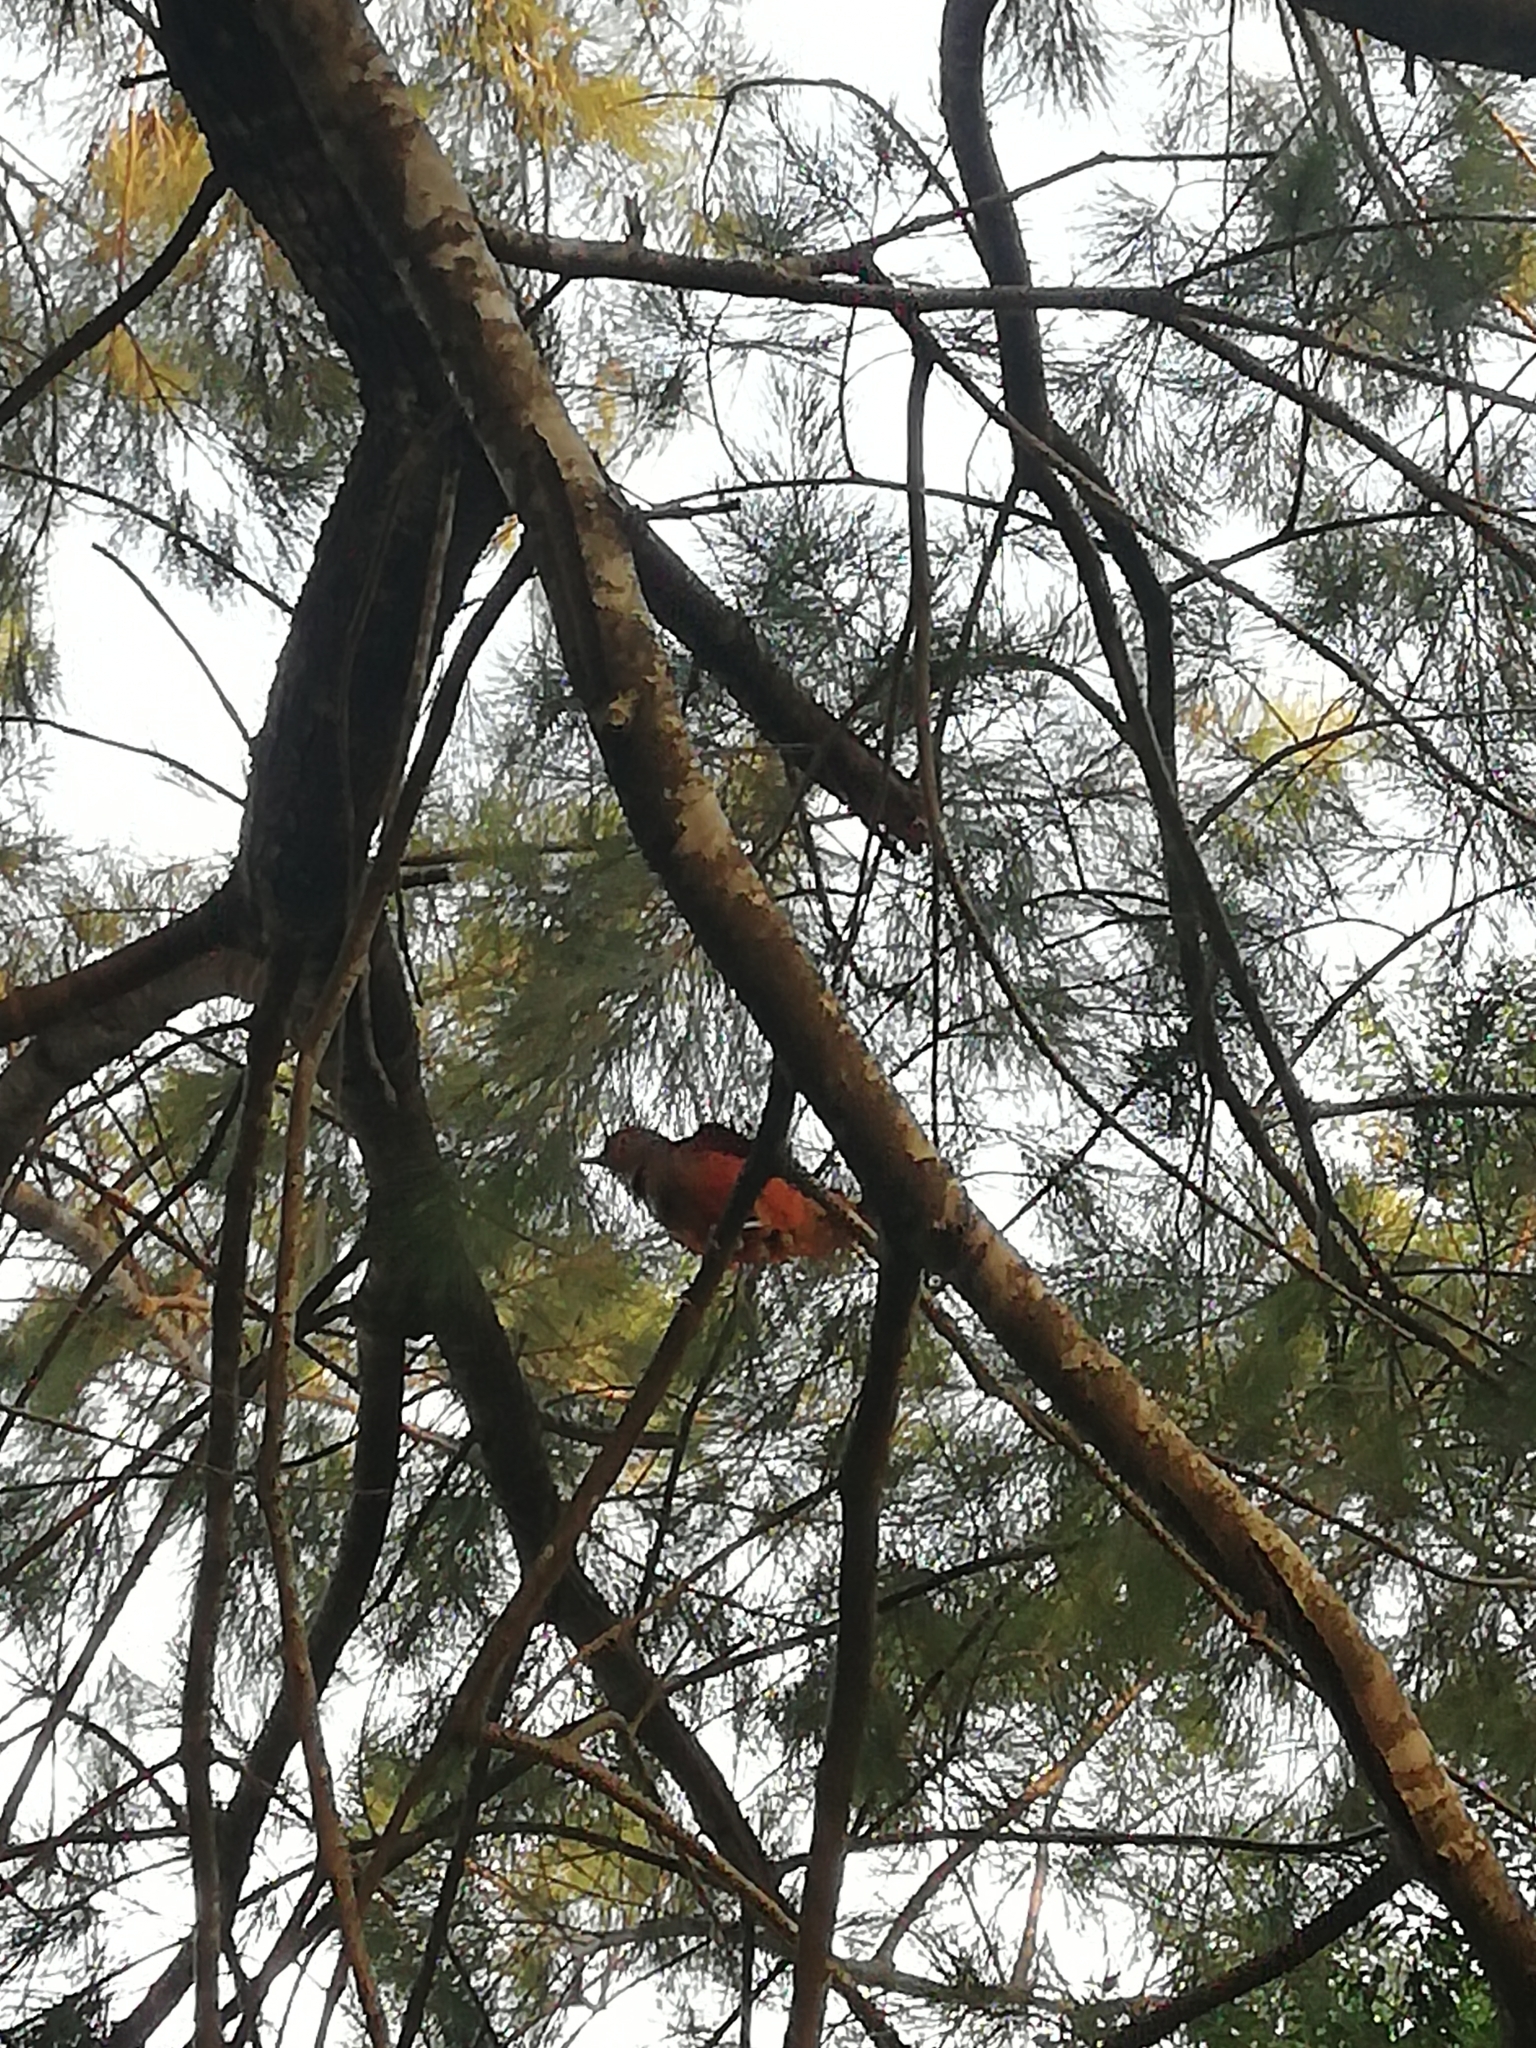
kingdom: Animalia
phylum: Chordata
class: Aves
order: Passeriformes
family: Turdidae
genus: Turdus
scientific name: Turdus rufiventris
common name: Rufous-bellied thrush
